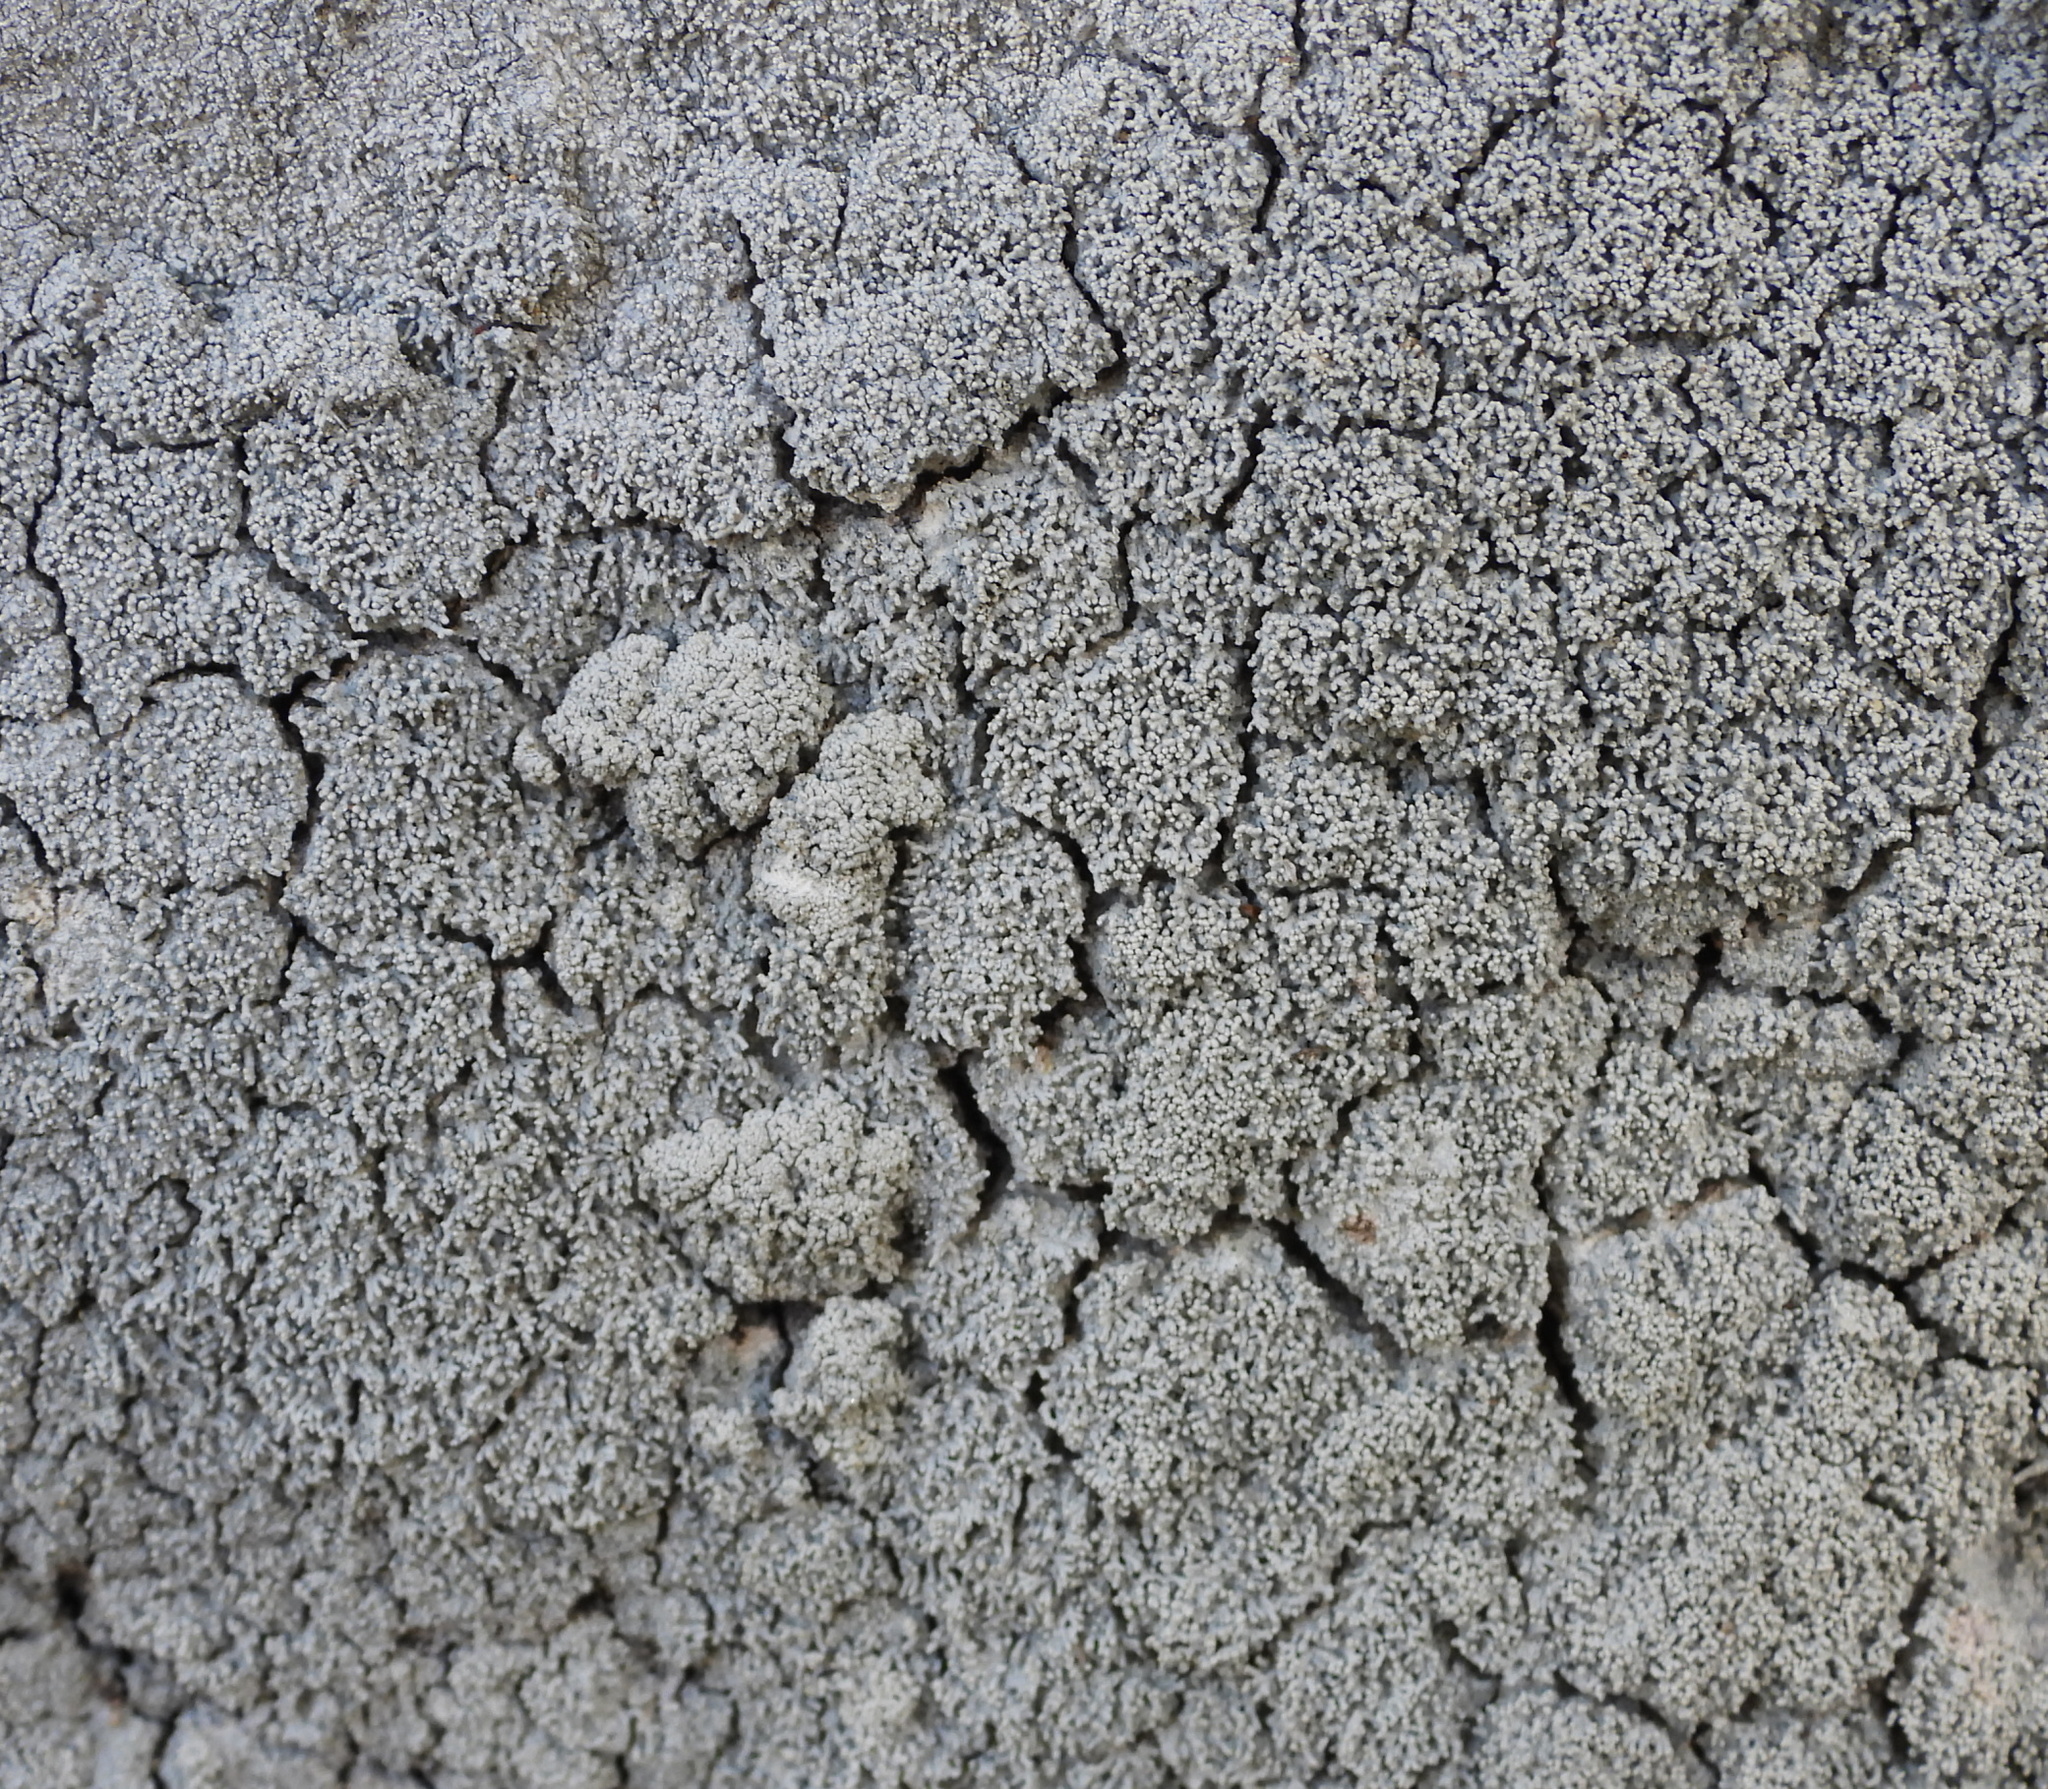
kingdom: Fungi
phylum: Ascomycota
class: Lecanoromycetes
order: Pertusariales
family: Pertusariaceae
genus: Lepra
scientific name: Lepra corallina
